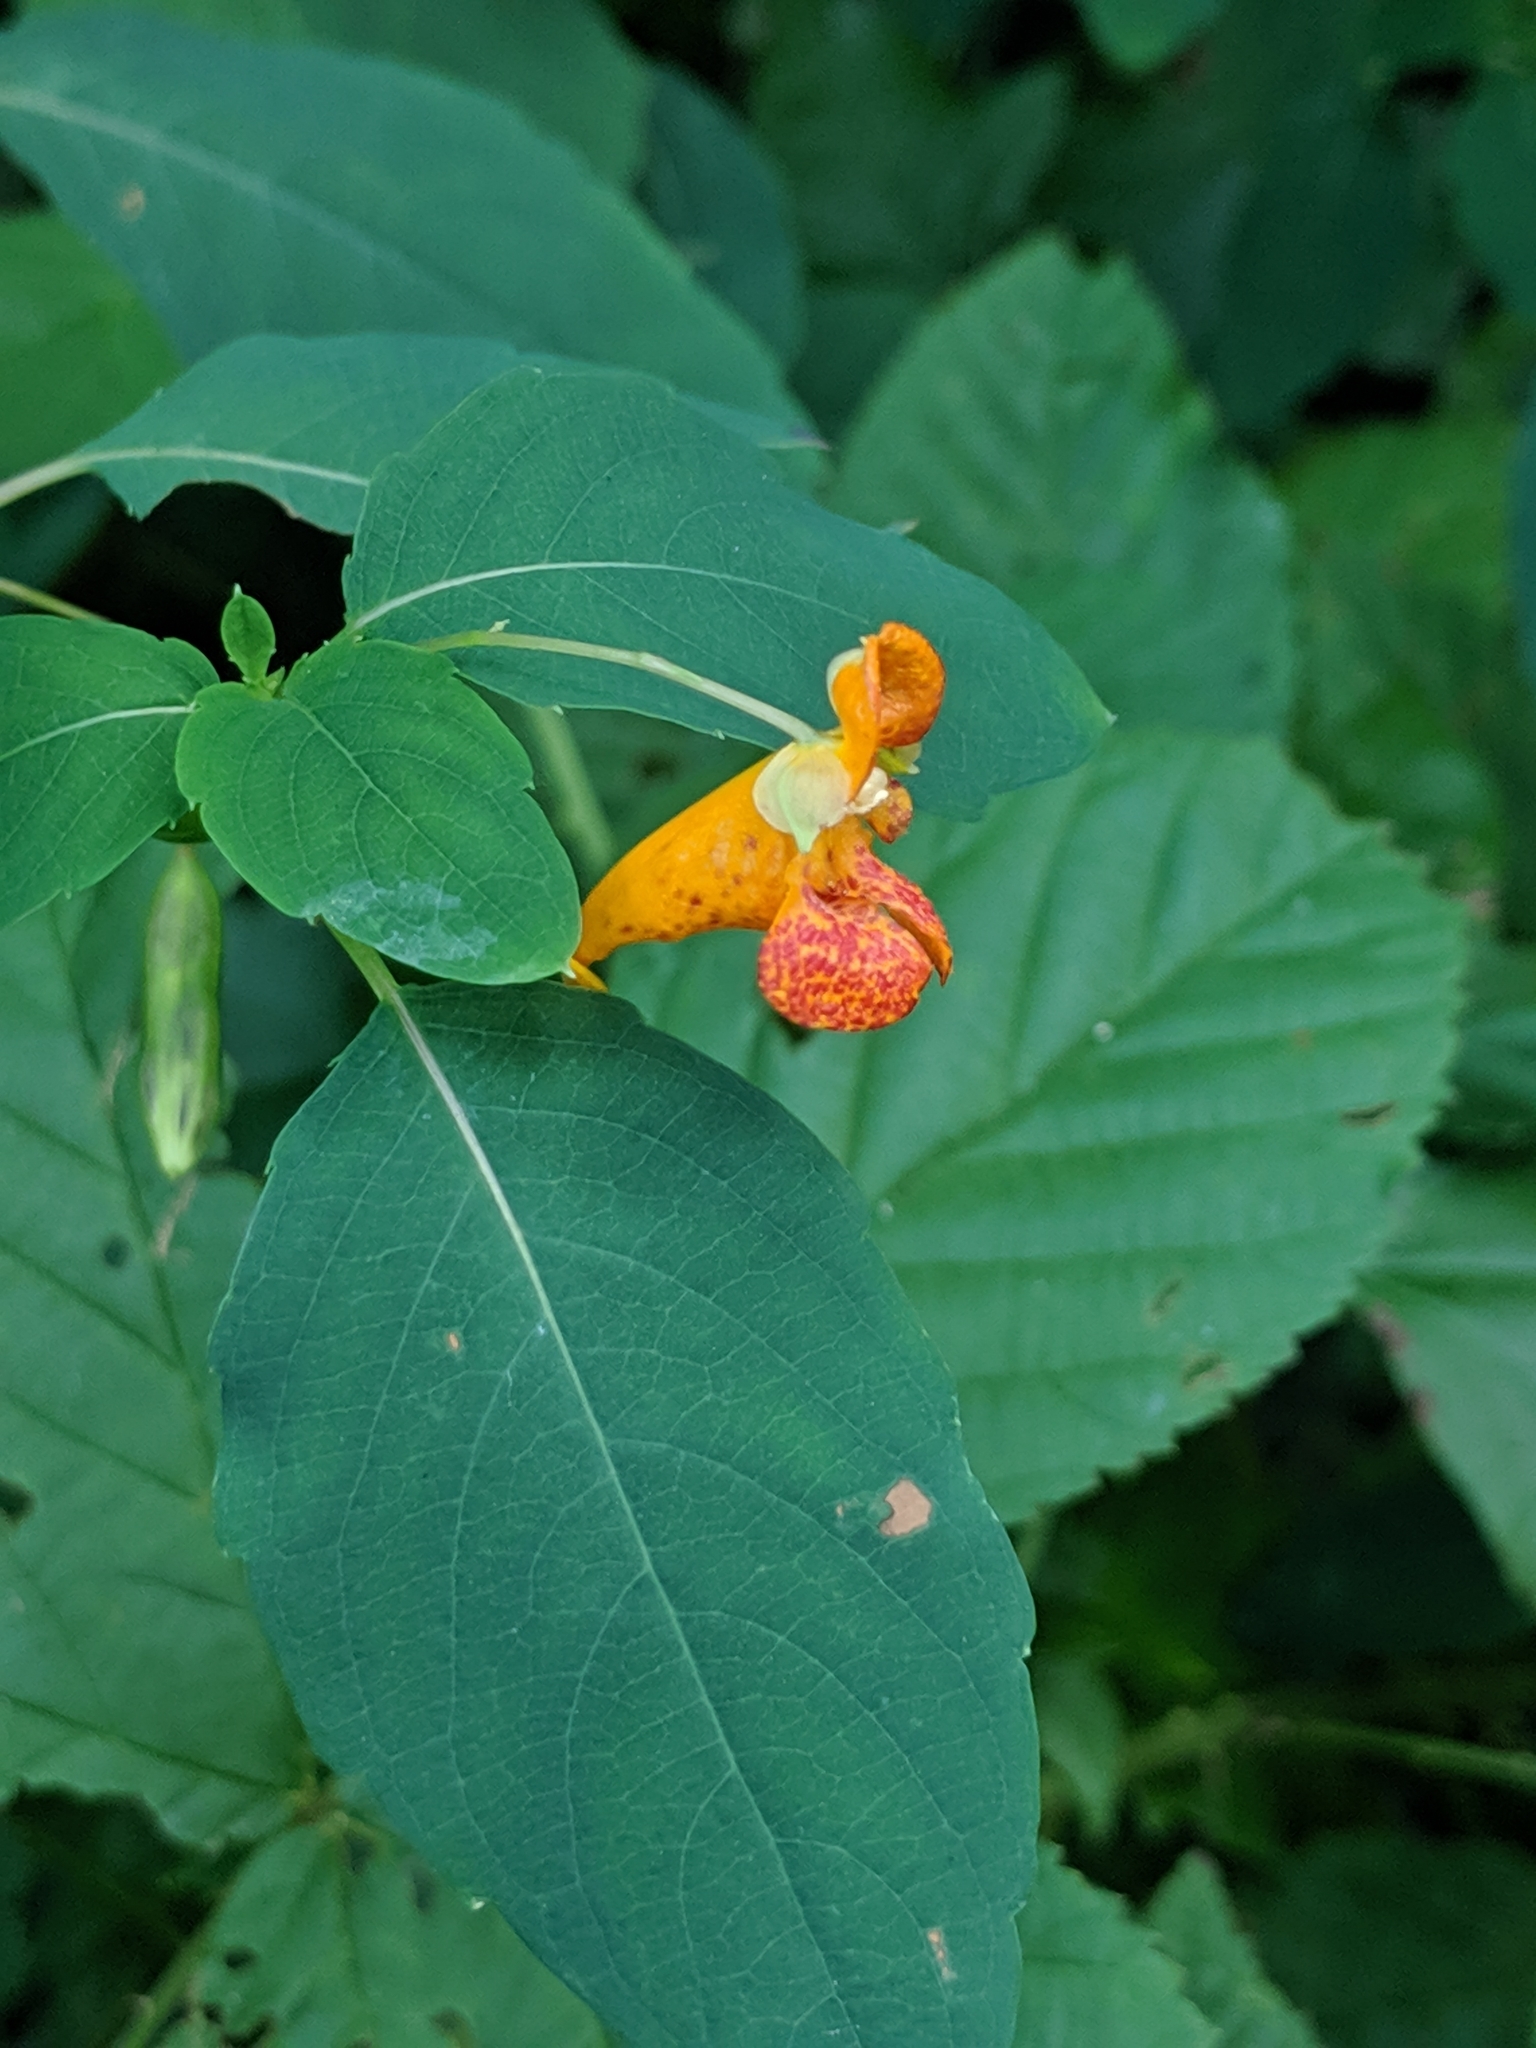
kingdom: Plantae
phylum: Tracheophyta
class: Magnoliopsida
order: Ericales
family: Balsaminaceae
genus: Impatiens
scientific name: Impatiens capensis
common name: Orange balsam
